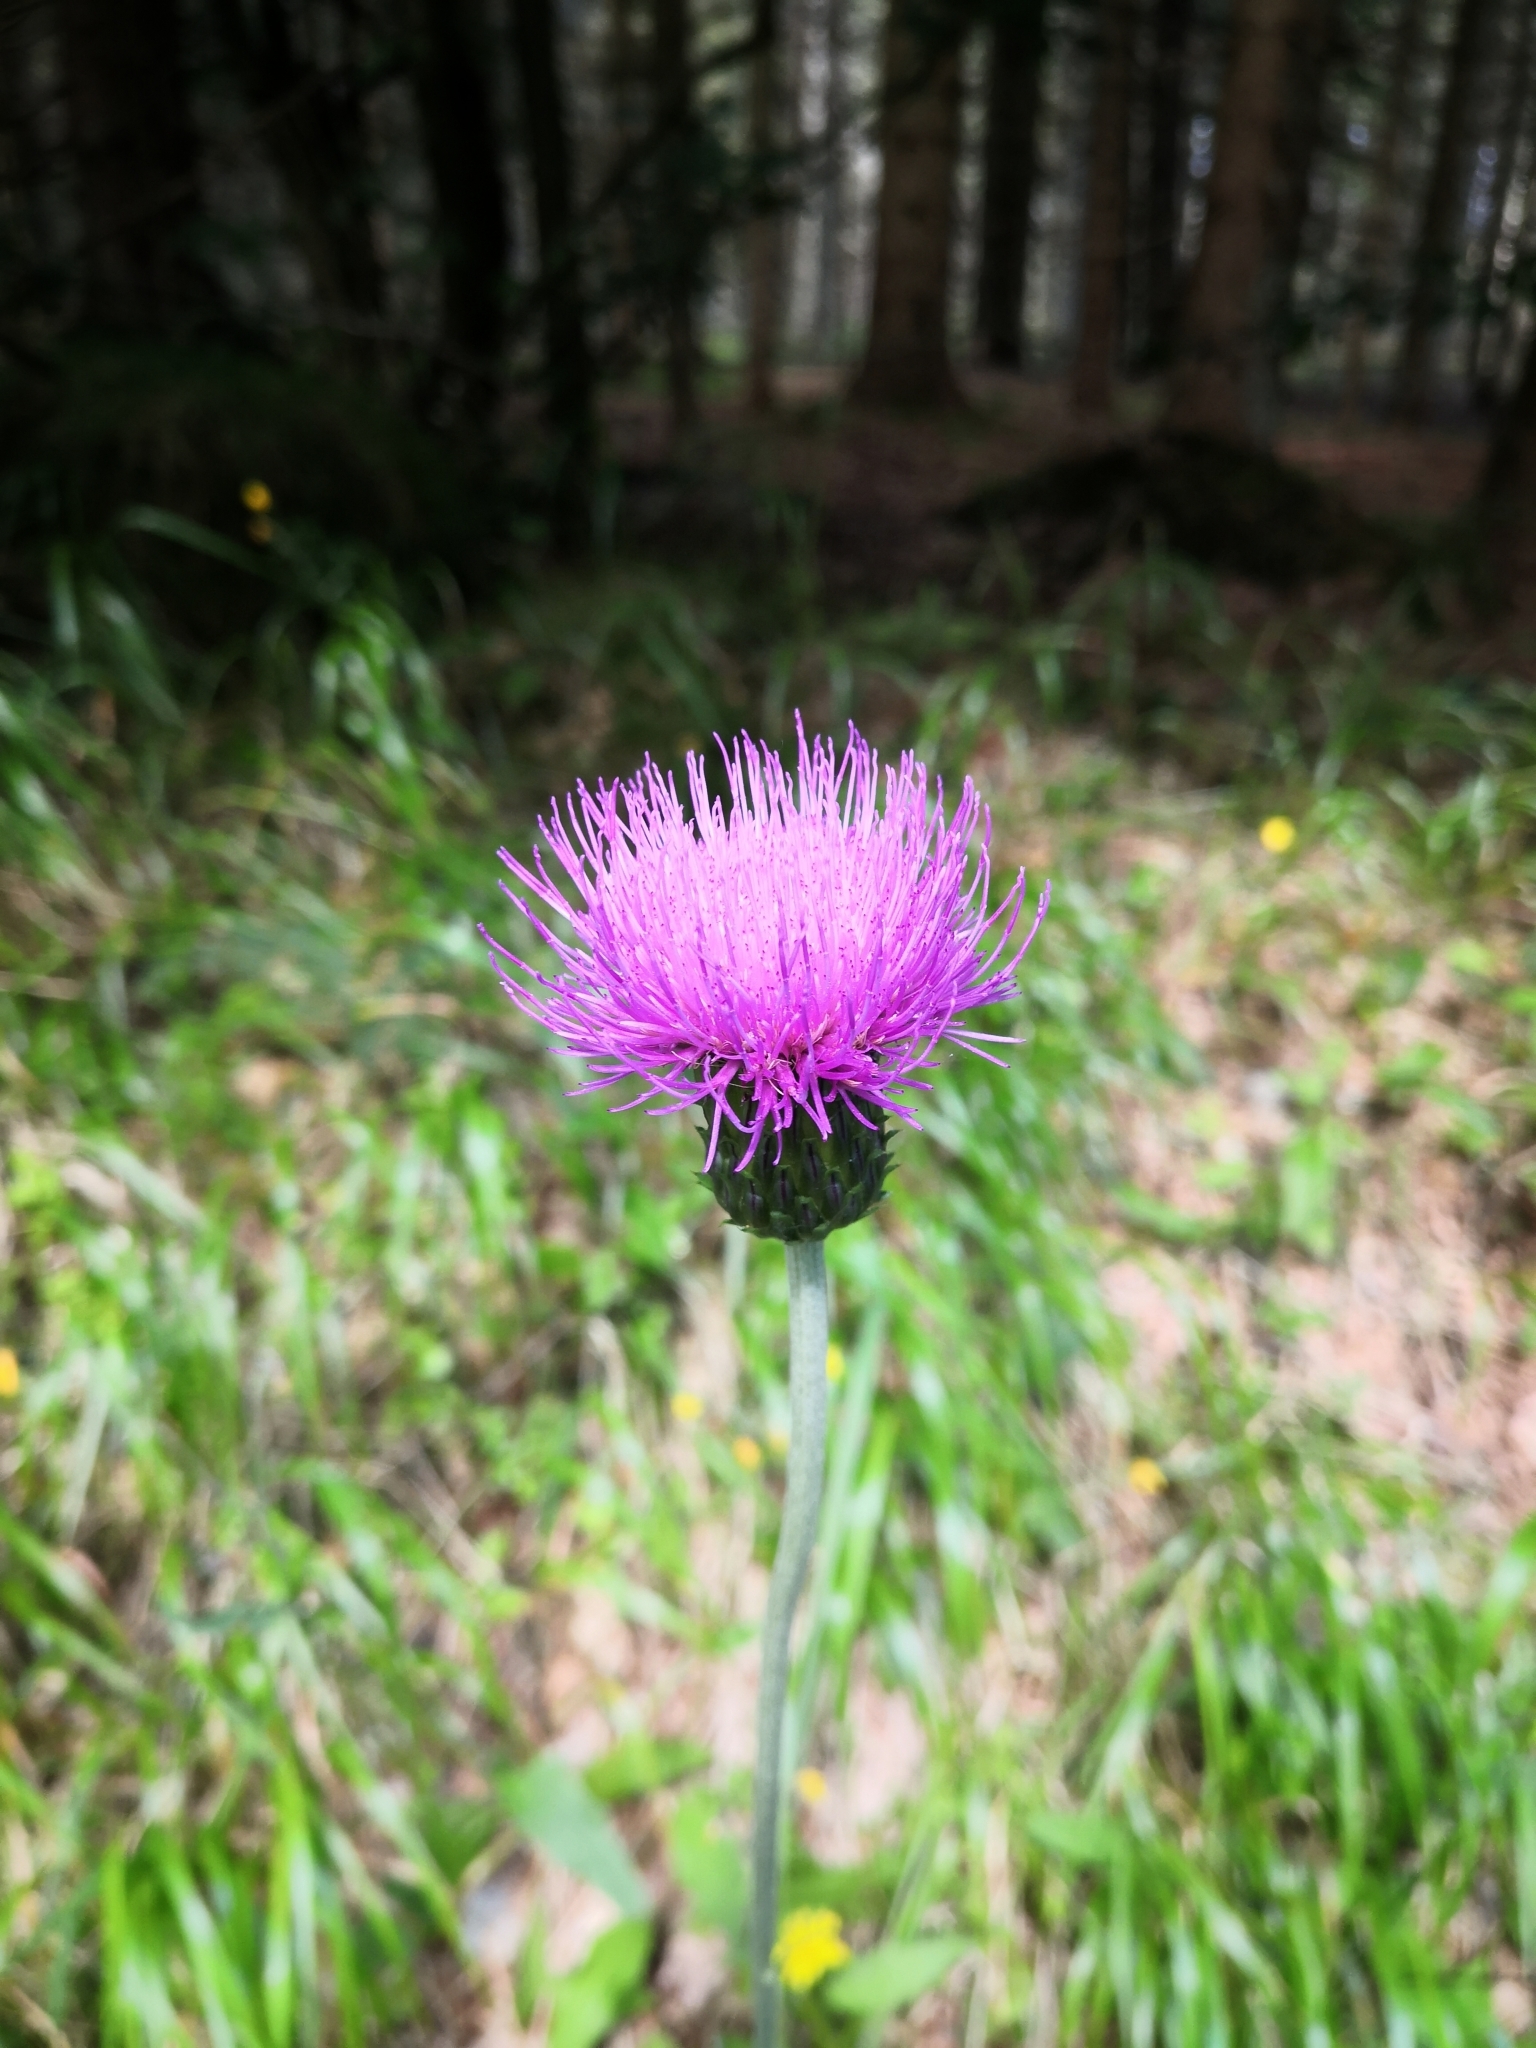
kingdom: Plantae
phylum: Tracheophyta
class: Magnoliopsida
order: Asterales
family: Asteraceae
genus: Cirsium
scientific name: Cirsium heterophyllum
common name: Melancholy thistle
